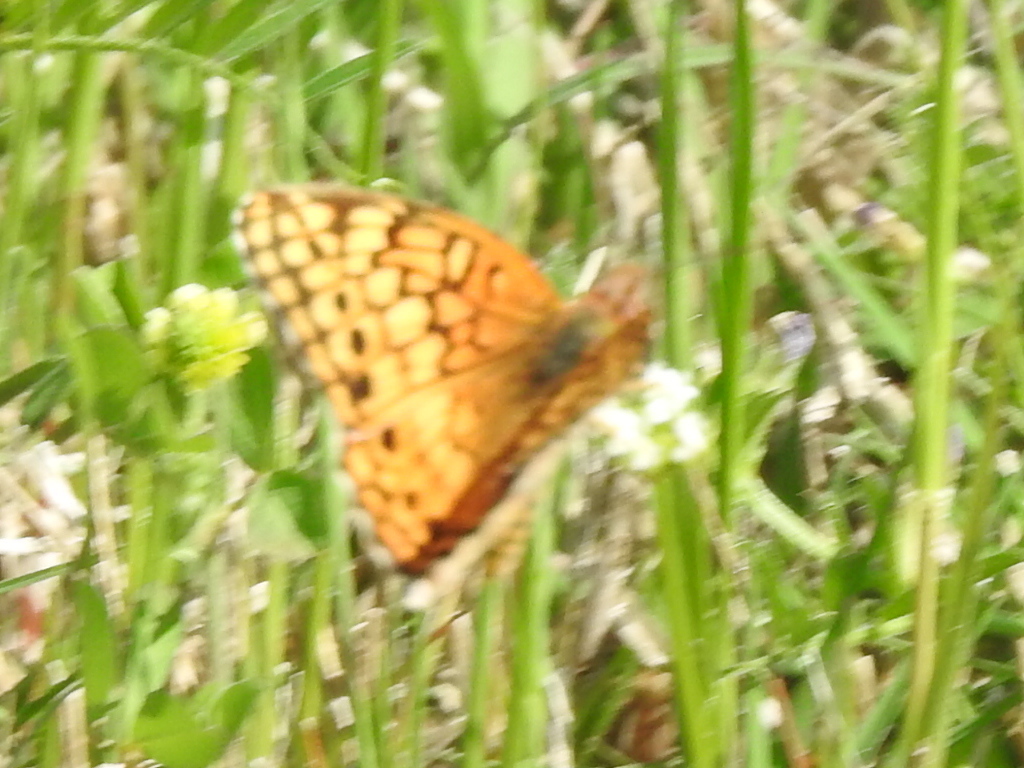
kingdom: Animalia
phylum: Arthropoda
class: Insecta
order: Lepidoptera
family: Nymphalidae
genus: Euptoieta
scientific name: Euptoieta claudia
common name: Variegated fritillary
